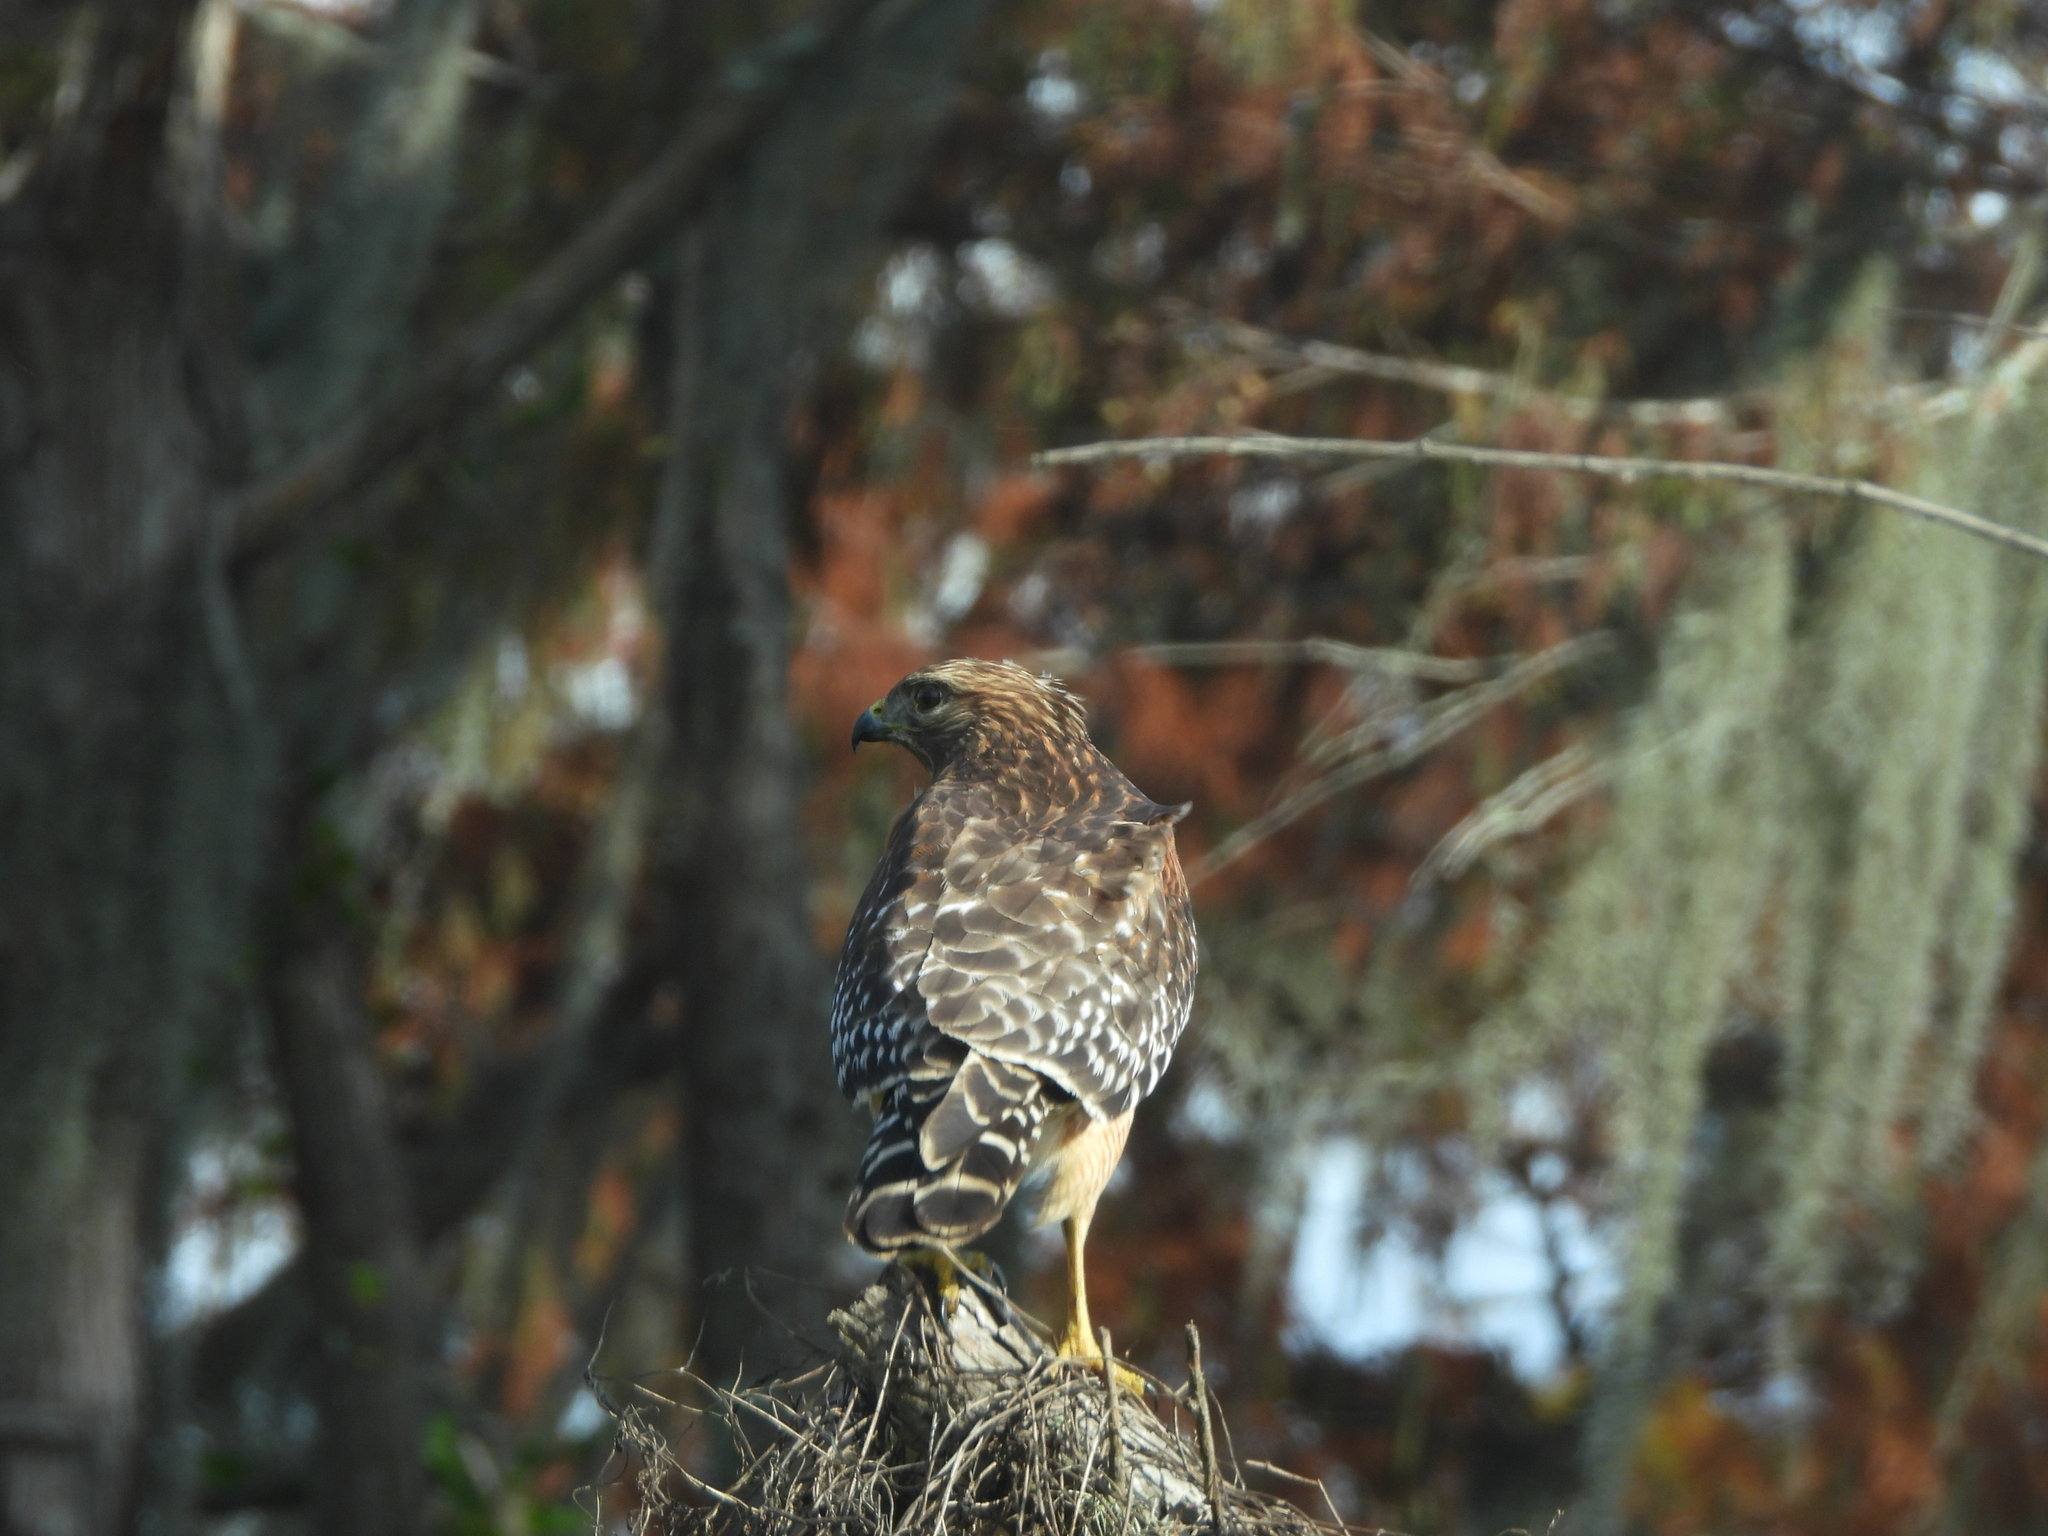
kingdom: Animalia
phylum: Chordata
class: Aves
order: Accipitriformes
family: Accipitridae
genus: Buteo
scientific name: Buteo lineatus
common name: Red-shouldered hawk
